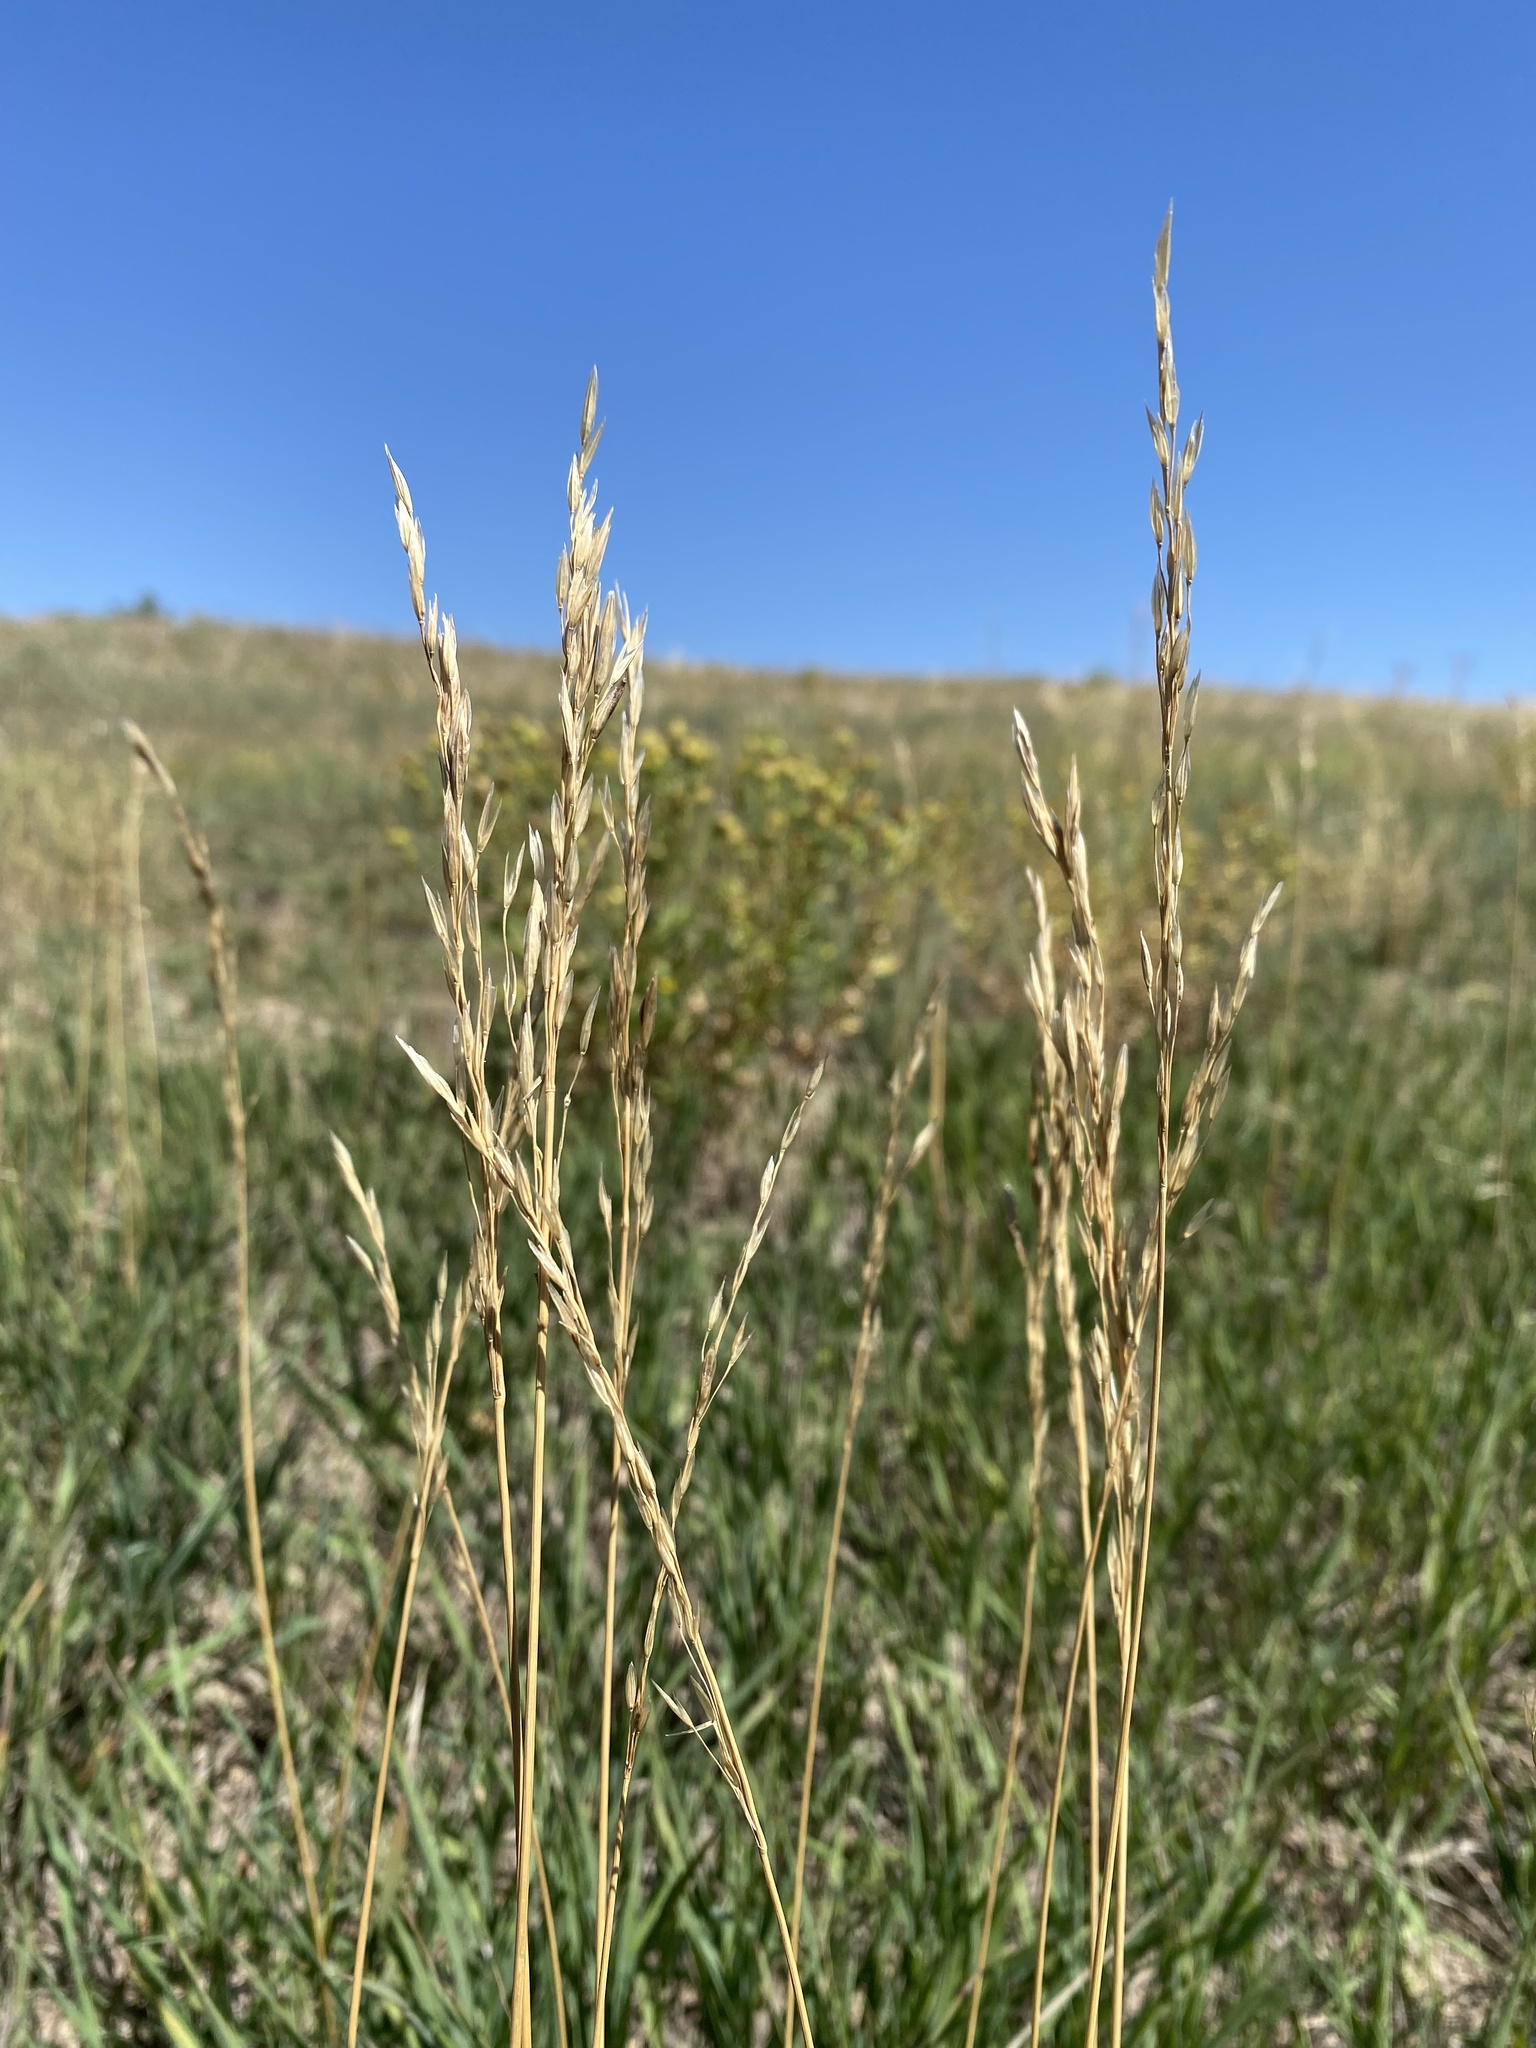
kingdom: Plantae
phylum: Tracheophyta
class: Liliopsida
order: Poales
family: Poaceae
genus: Bromus
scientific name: Bromus inermis
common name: Smooth brome
